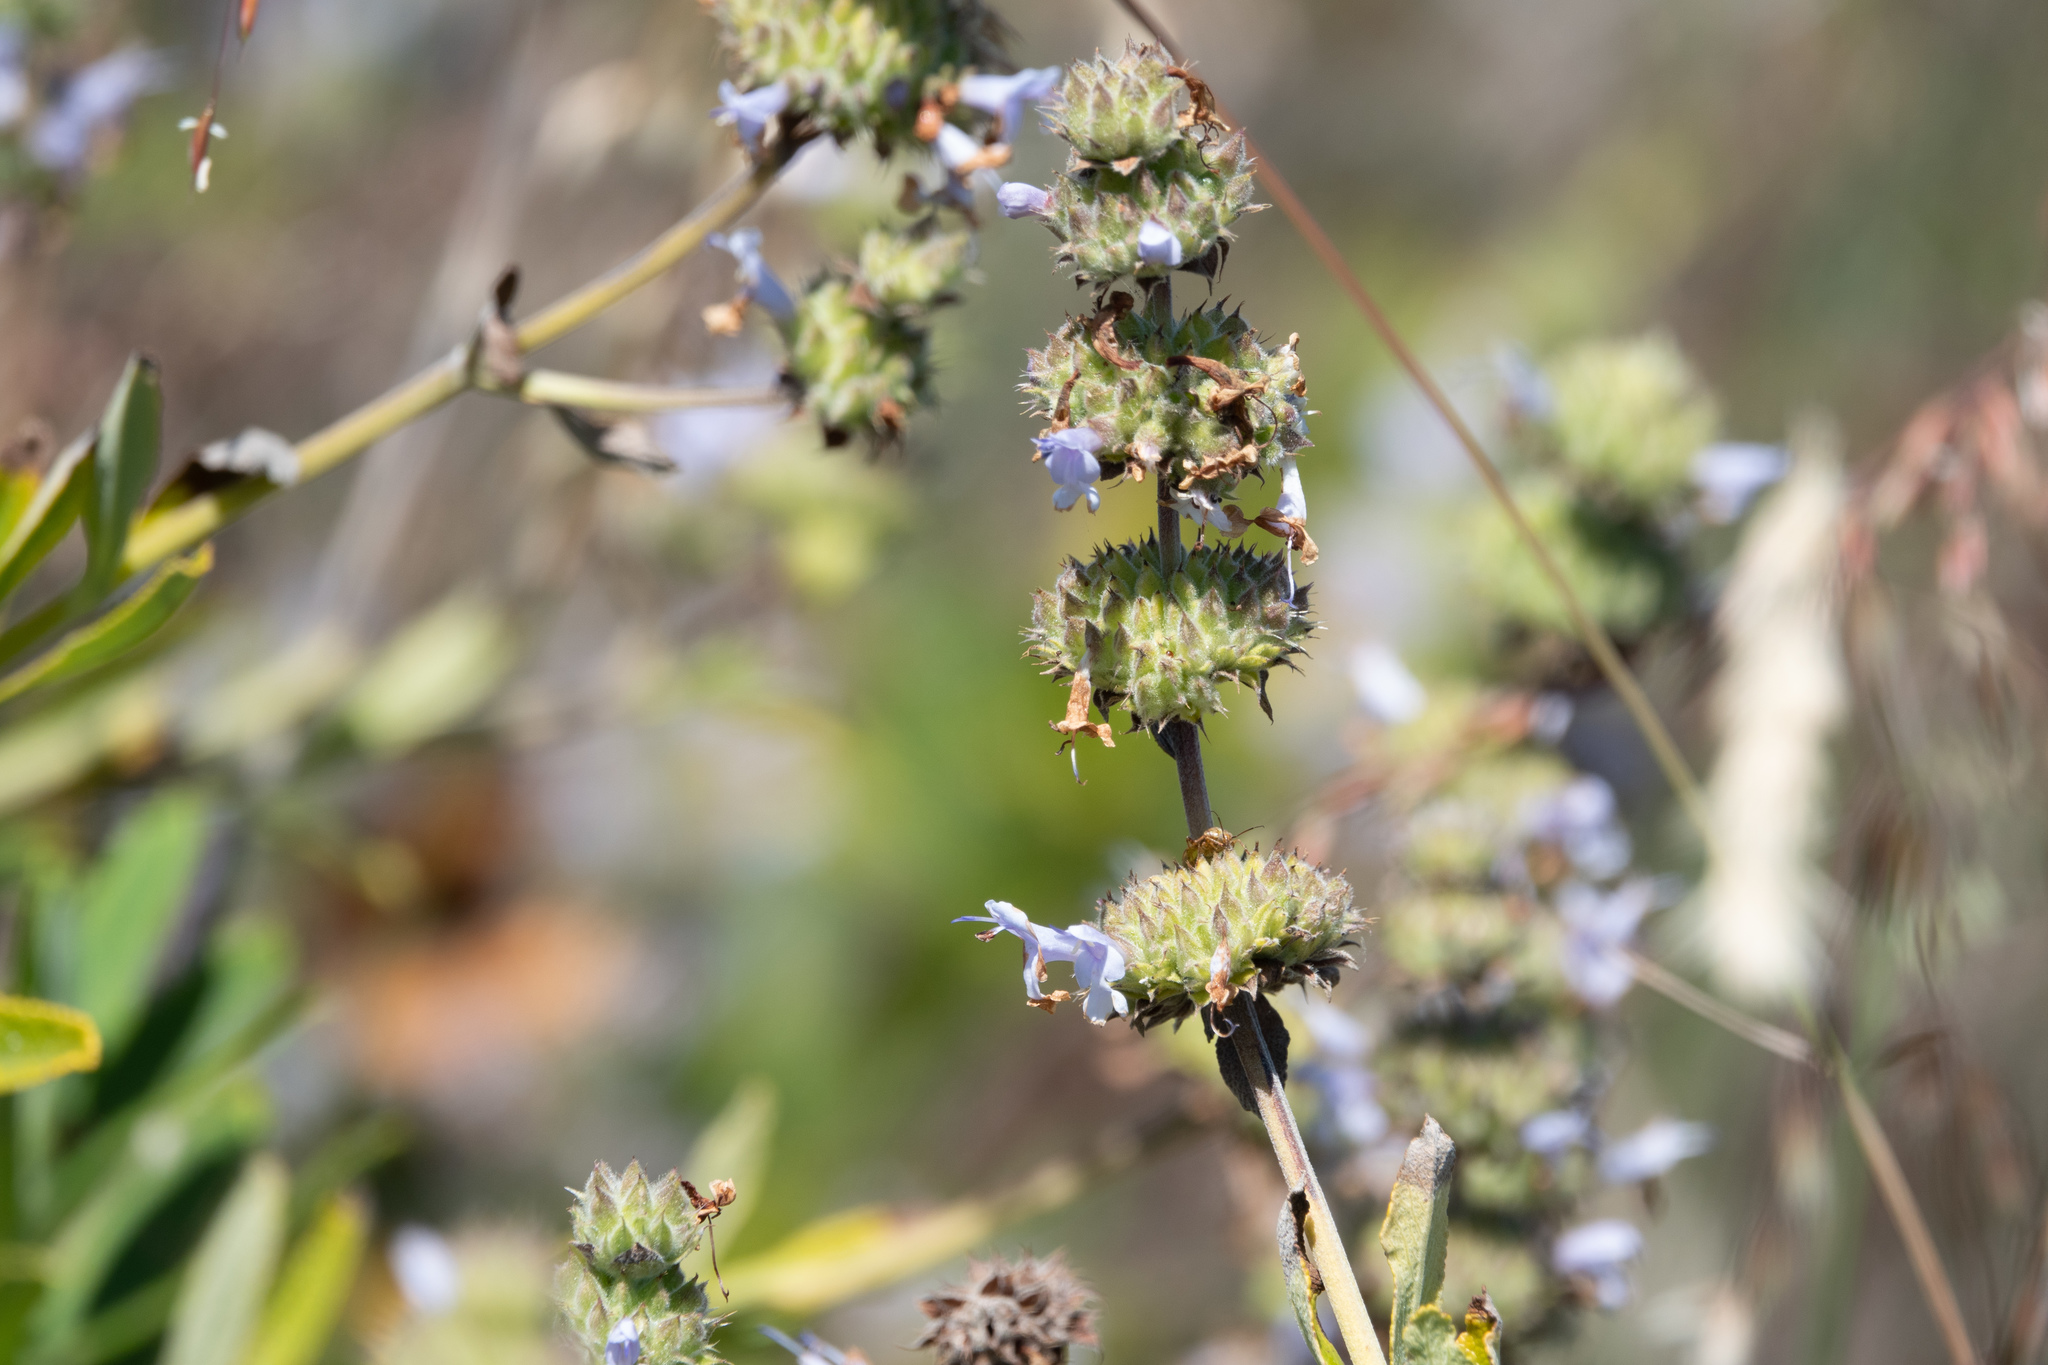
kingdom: Plantae
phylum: Tracheophyta
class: Magnoliopsida
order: Lamiales
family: Lamiaceae
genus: Salvia
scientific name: Salvia mellifera
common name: Black sage
